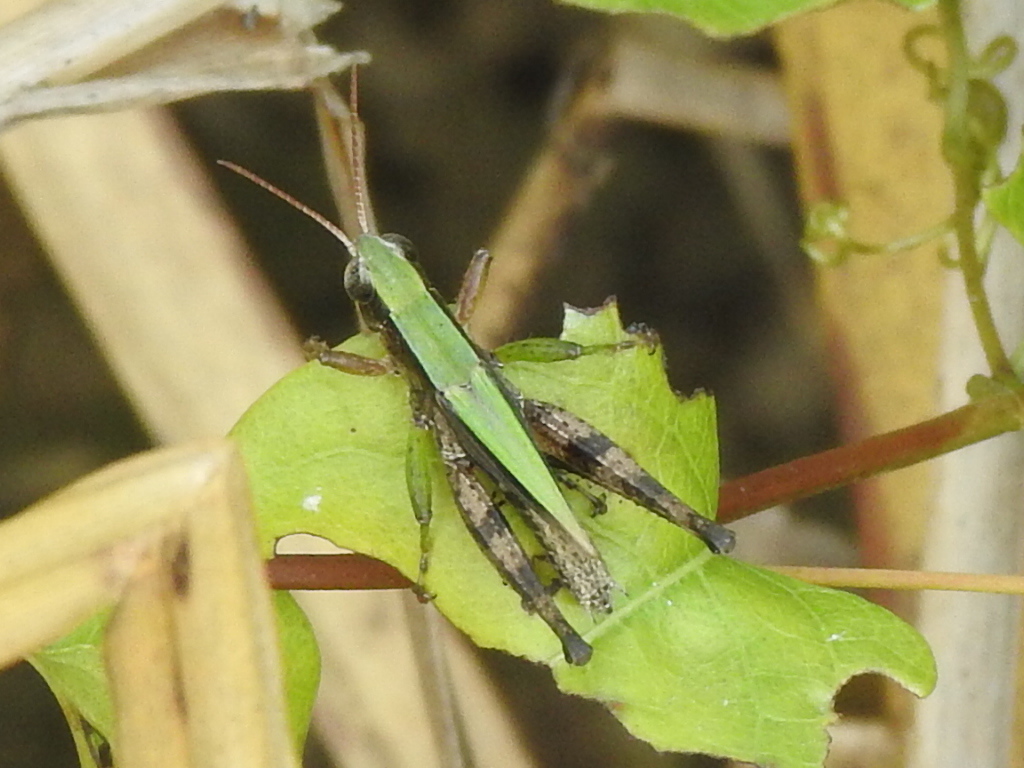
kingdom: Animalia
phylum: Arthropoda
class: Insecta
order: Orthoptera
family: Acrididae
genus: Dichromorpha
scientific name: Dichromorpha viridis
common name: Short-winged green grasshopper
